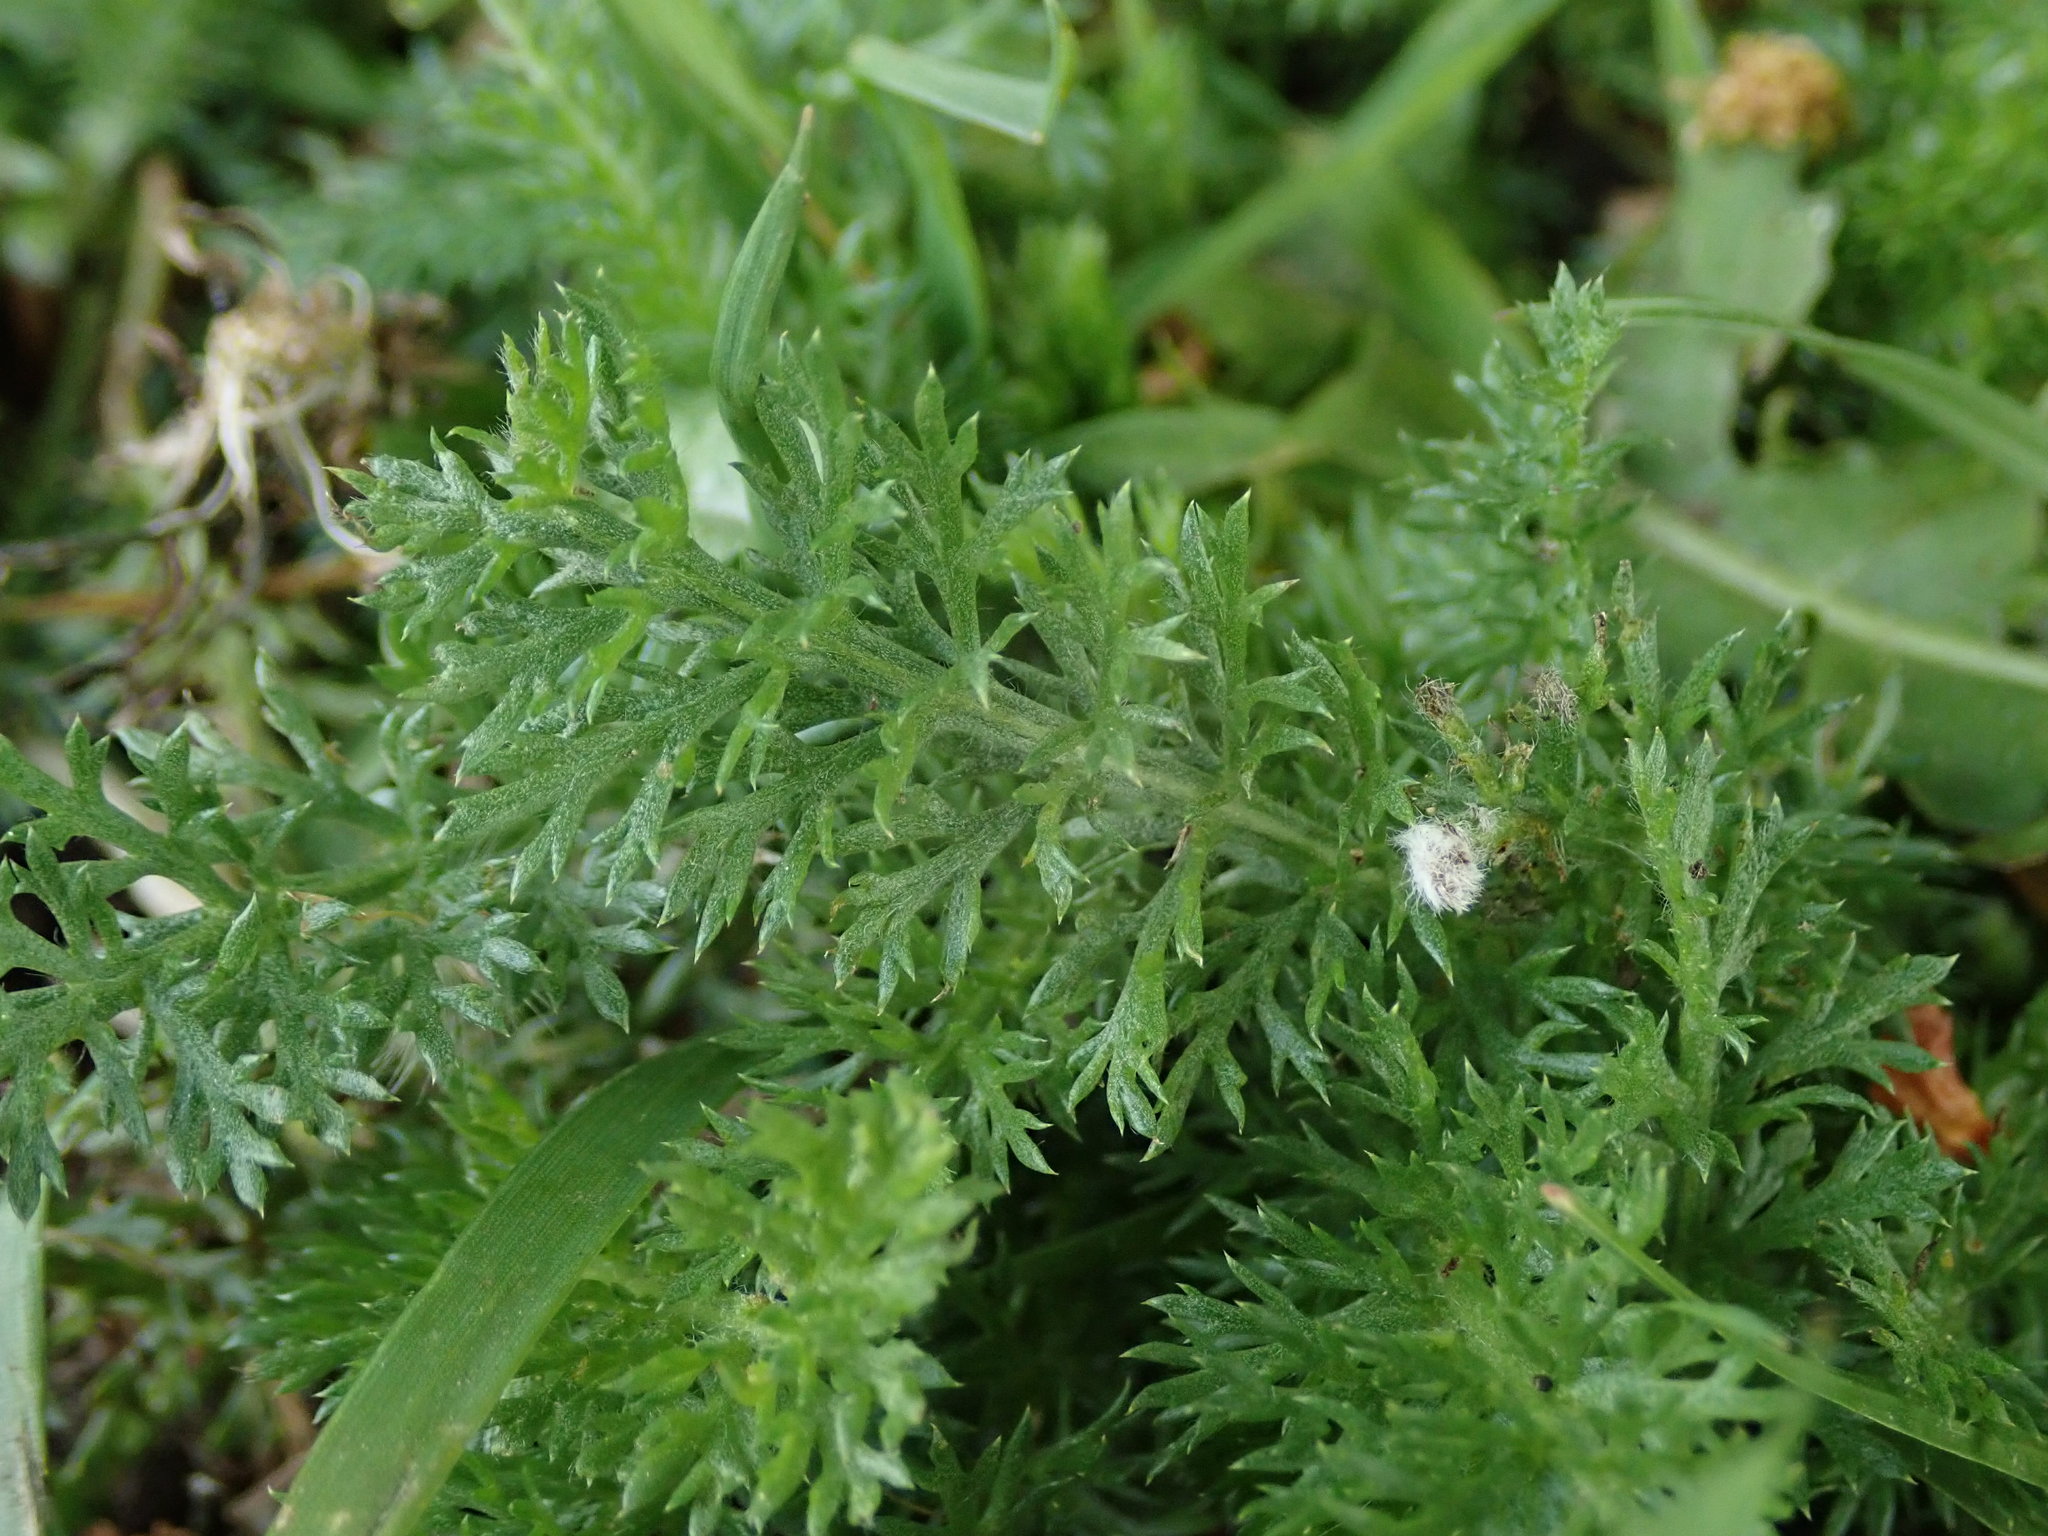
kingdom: Plantae
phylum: Tracheophyta
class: Magnoliopsida
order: Asterales
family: Asteraceae
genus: Achillea
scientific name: Achillea millefolium
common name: Yarrow
